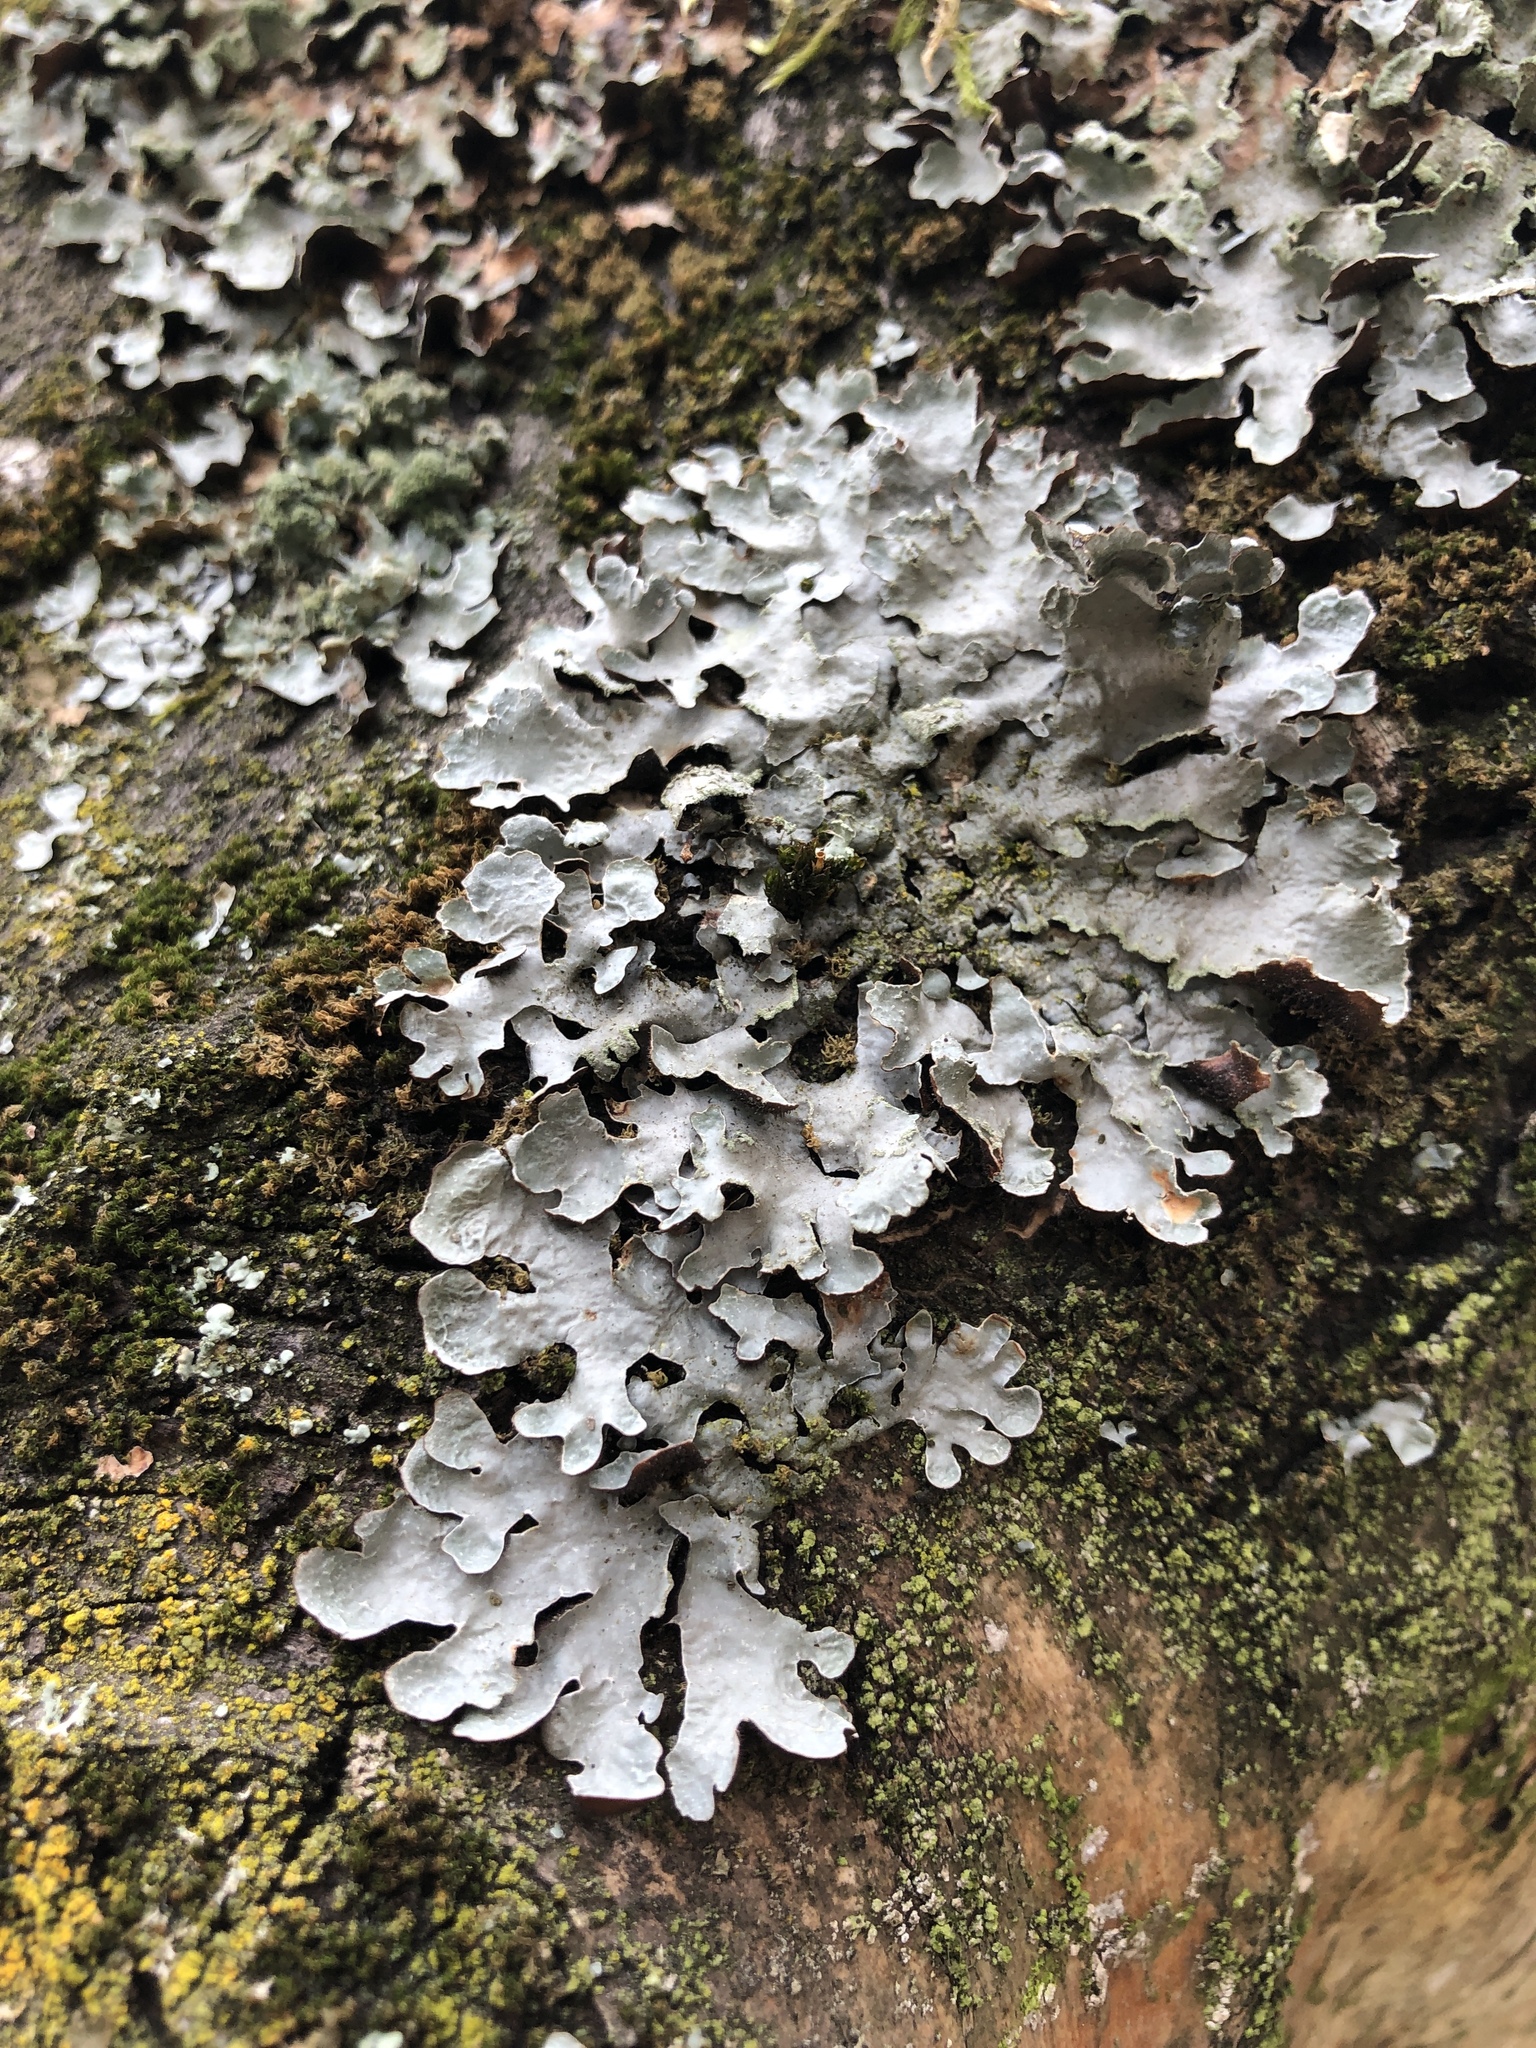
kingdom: Fungi
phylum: Ascomycota
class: Lecanoromycetes
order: Lecanorales
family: Parmeliaceae
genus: Parmelia
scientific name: Parmelia sulcata
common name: Netted shield lichen
